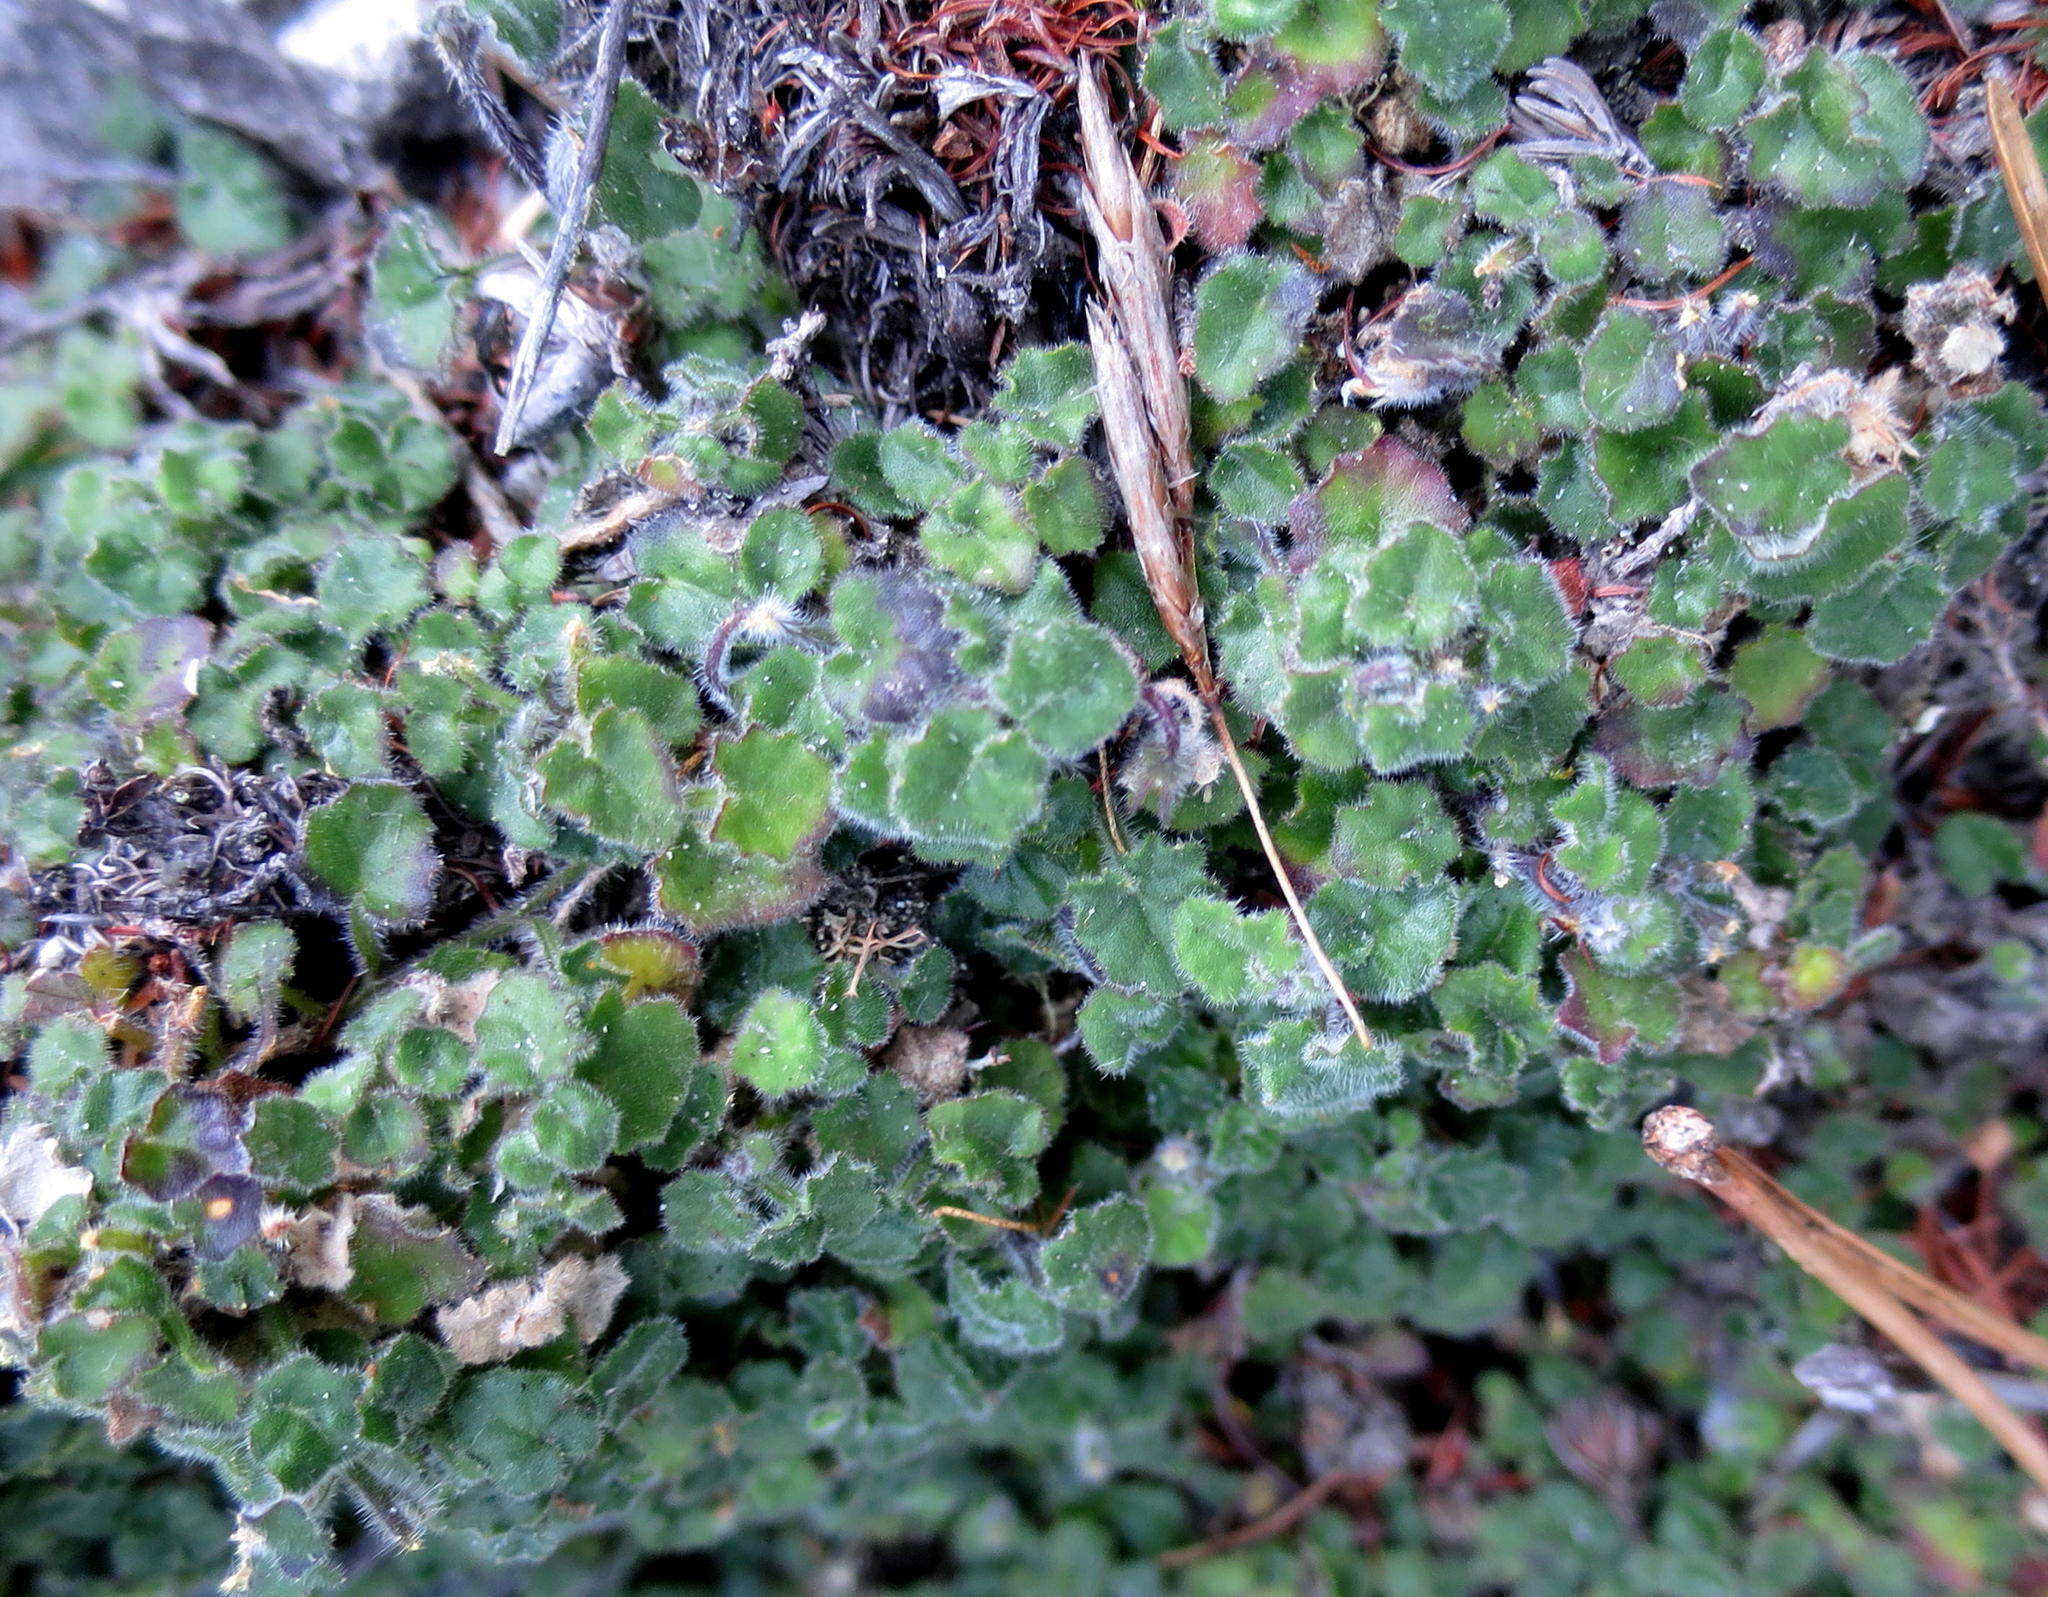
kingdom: Plantae
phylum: Tracheophyta
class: Magnoliopsida
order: Asterales
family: Campanulaceae
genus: Lobelia
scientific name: Lobelia ardisiandroides
